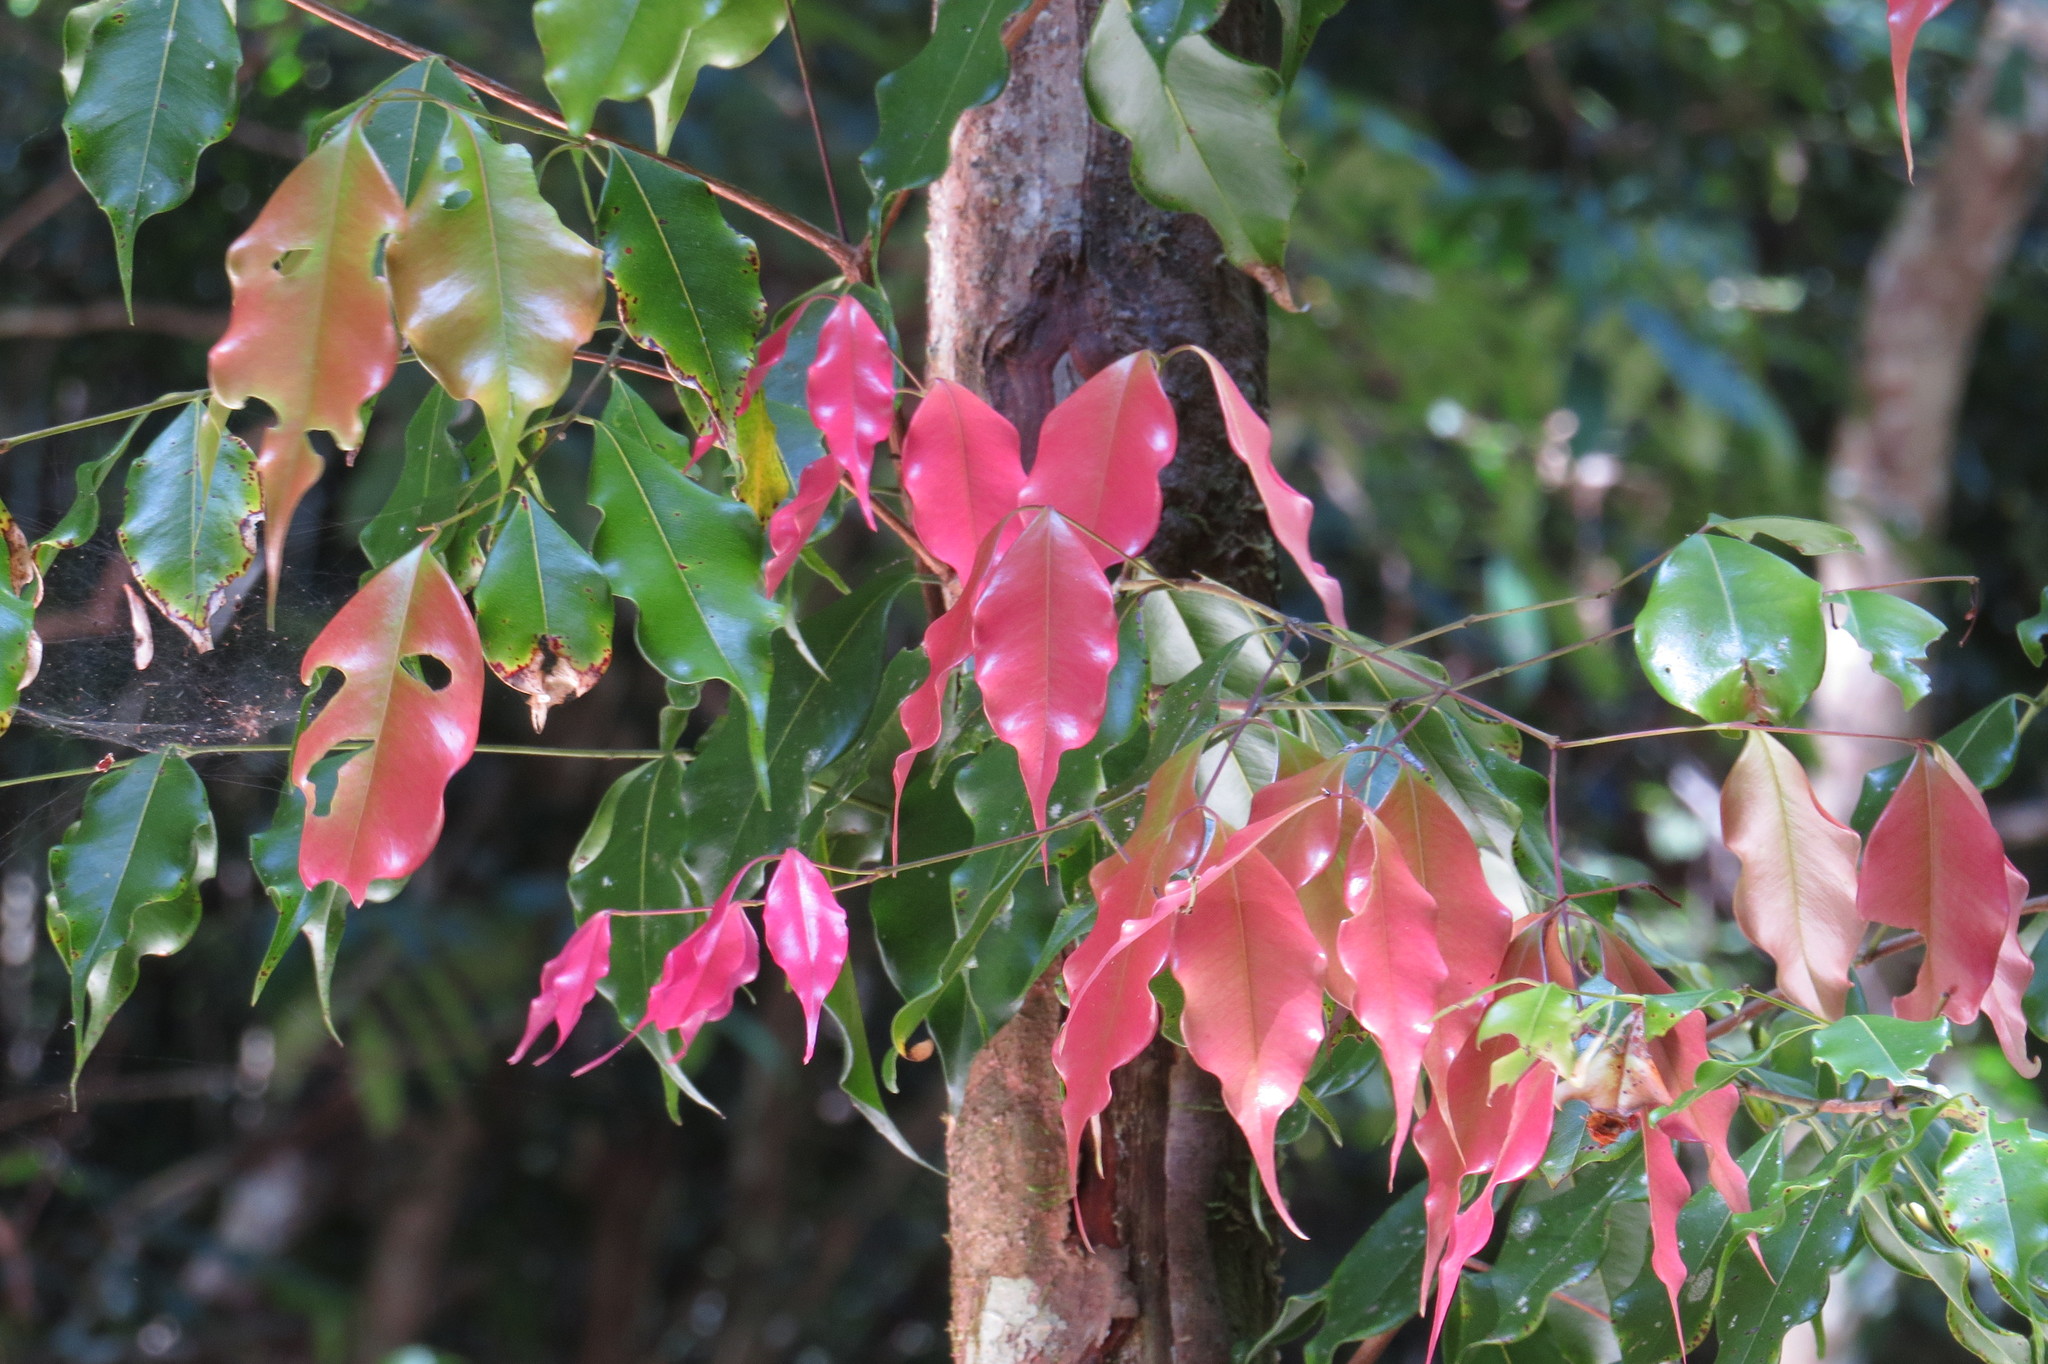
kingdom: Plantae
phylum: Tracheophyta
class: Magnoliopsida
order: Myrtales
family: Myrtaceae
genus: Syzygium
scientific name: Syzygium unipunctatum
